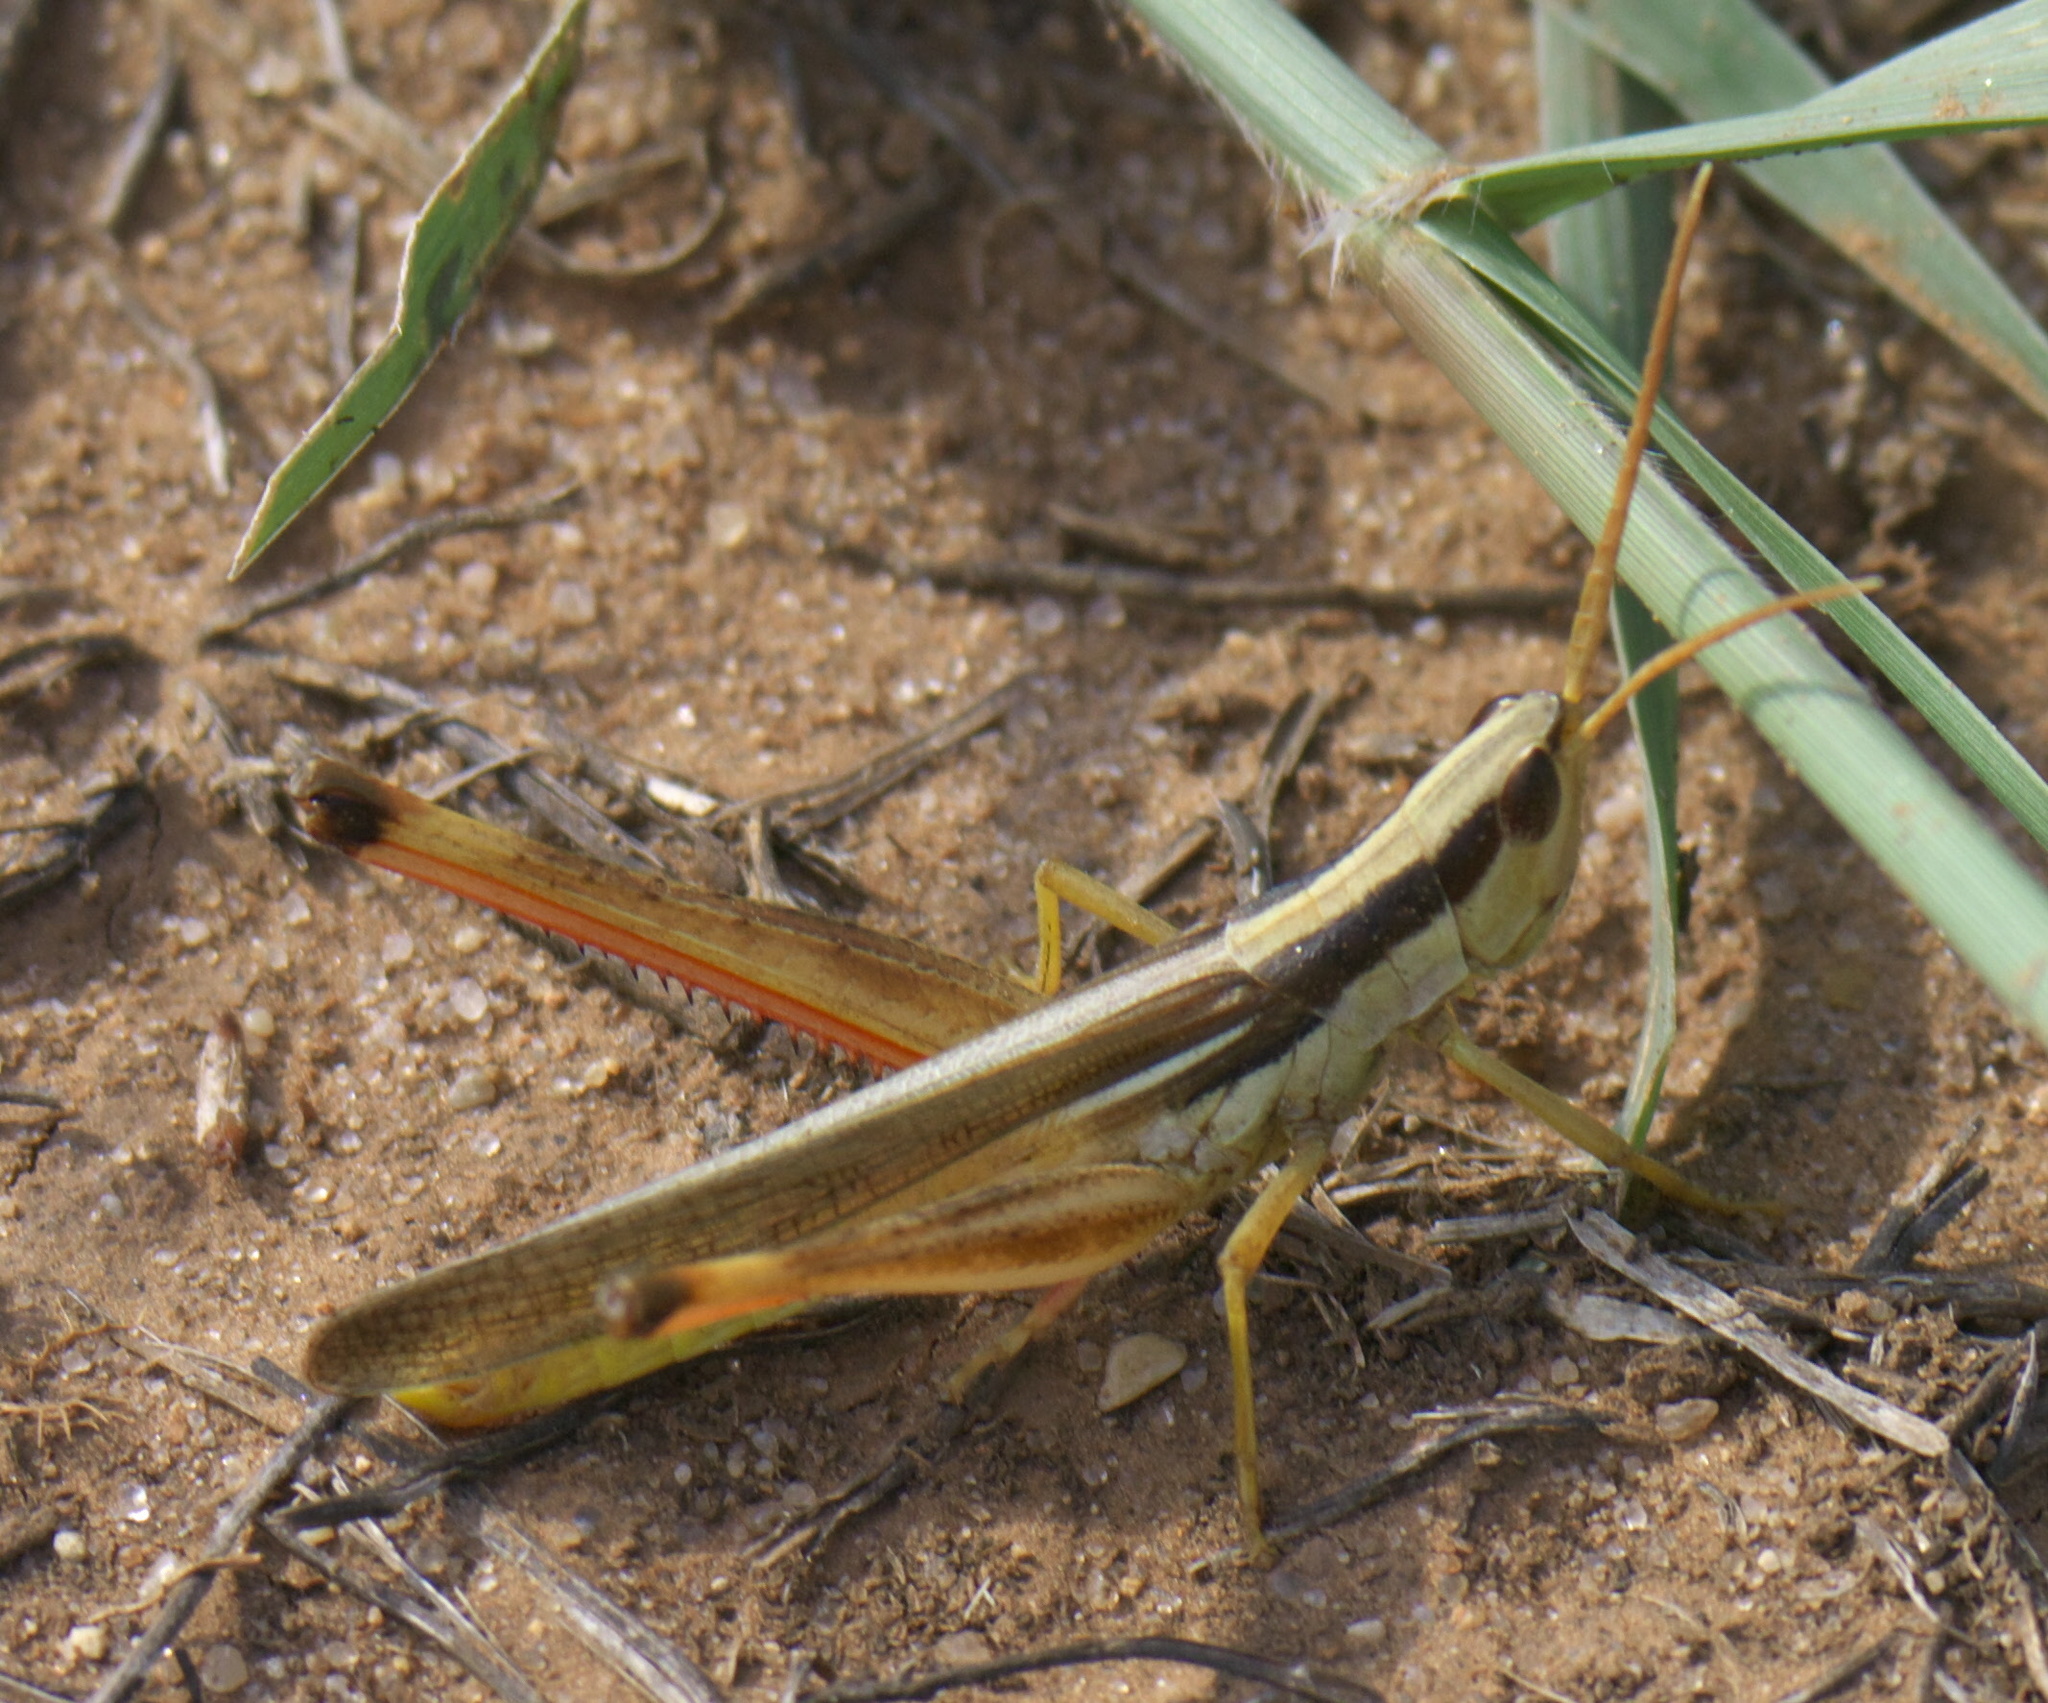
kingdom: Animalia
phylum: Arthropoda
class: Insecta
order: Orthoptera
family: Acrididae
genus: Mermiria
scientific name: Mermiria bivittata
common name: Two-striped mermiria grasshopper
